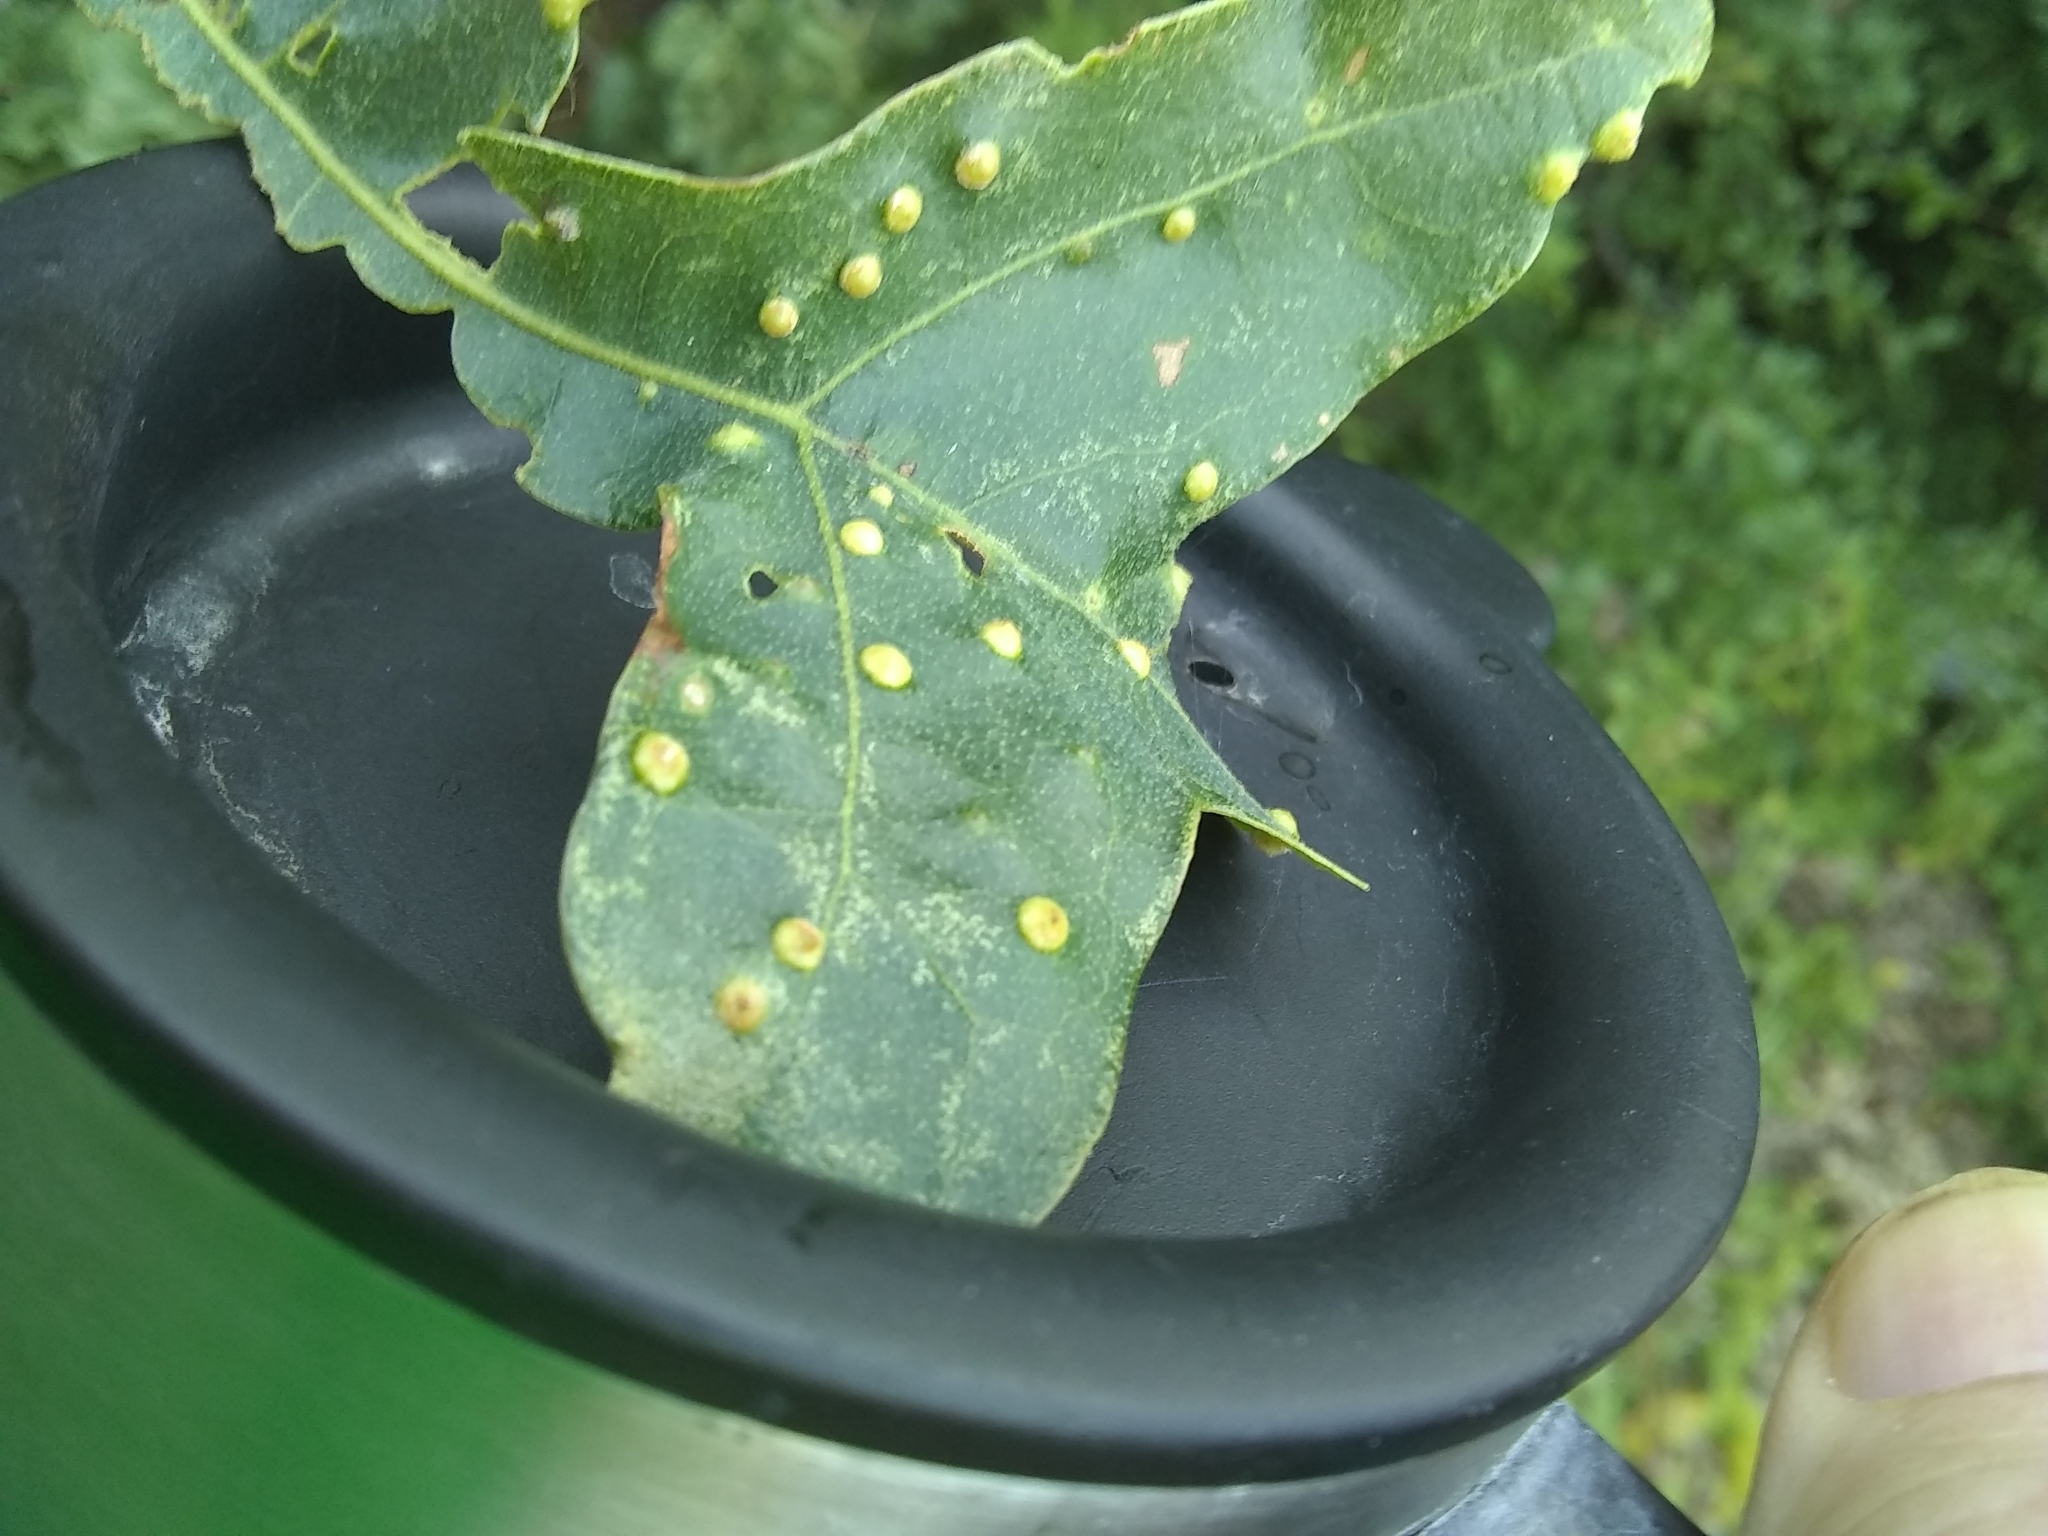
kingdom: Animalia
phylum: Arthropoda
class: Insecta
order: Hymenoptera
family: Cynipidae
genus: Neuroterus
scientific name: Neuroterus quercusverrucarum
